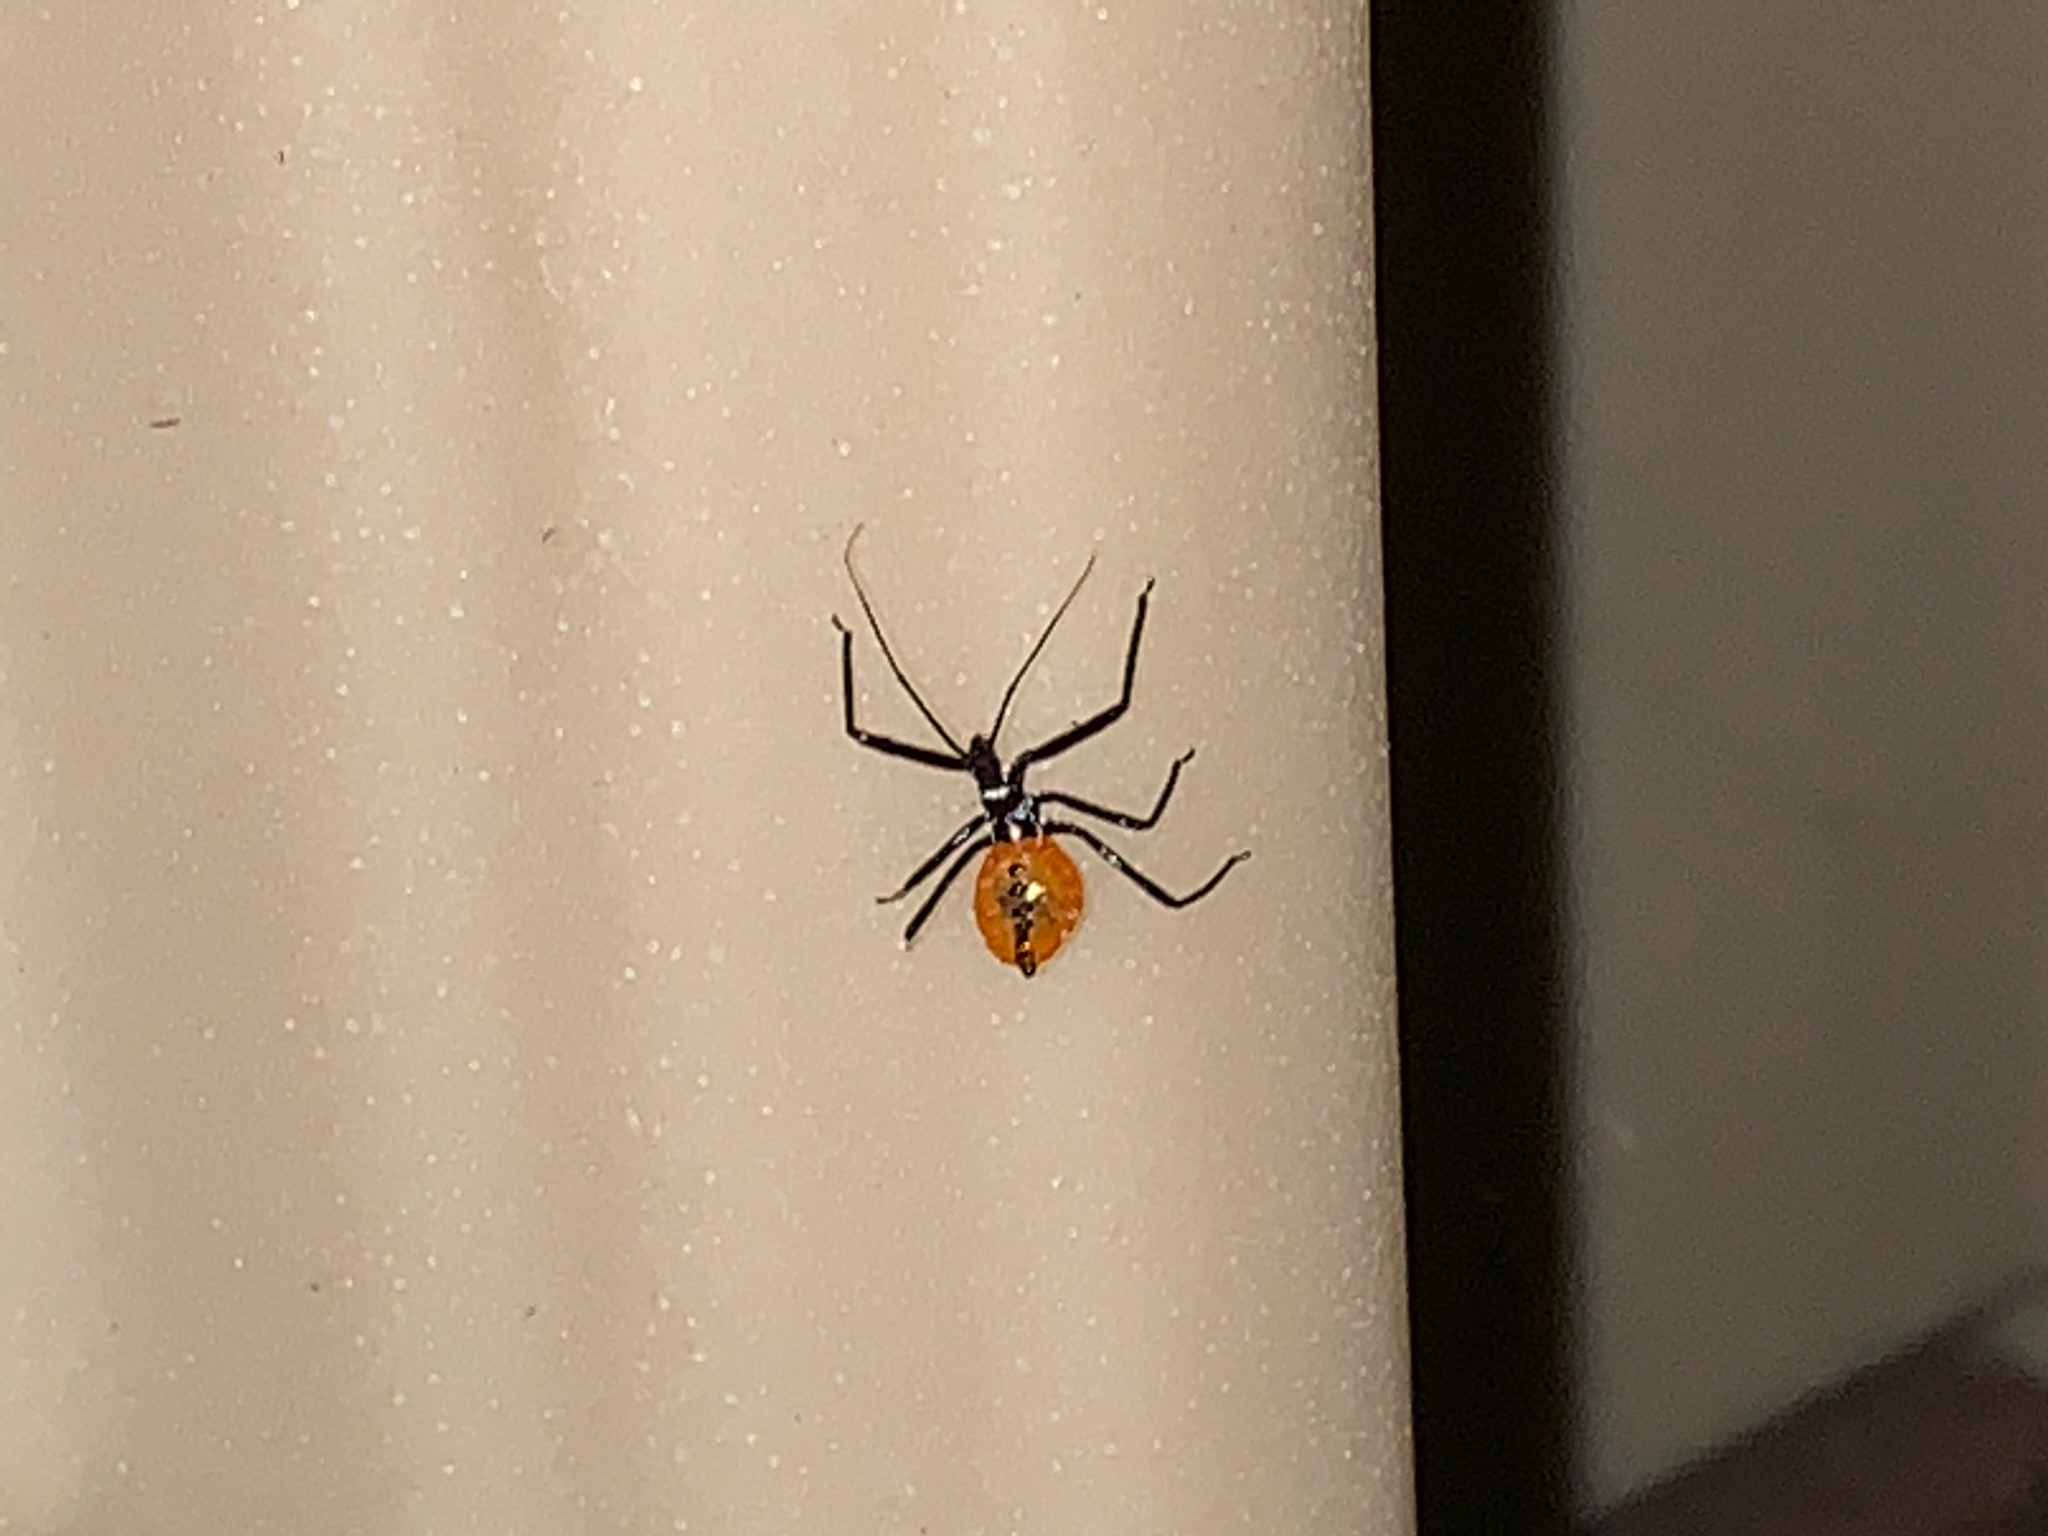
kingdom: Animalia
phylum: Arthropoda
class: Insecta
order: Hemiptera
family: Reduviidae
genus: Arilus
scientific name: Arilus cristatus
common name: North american wheel bug
